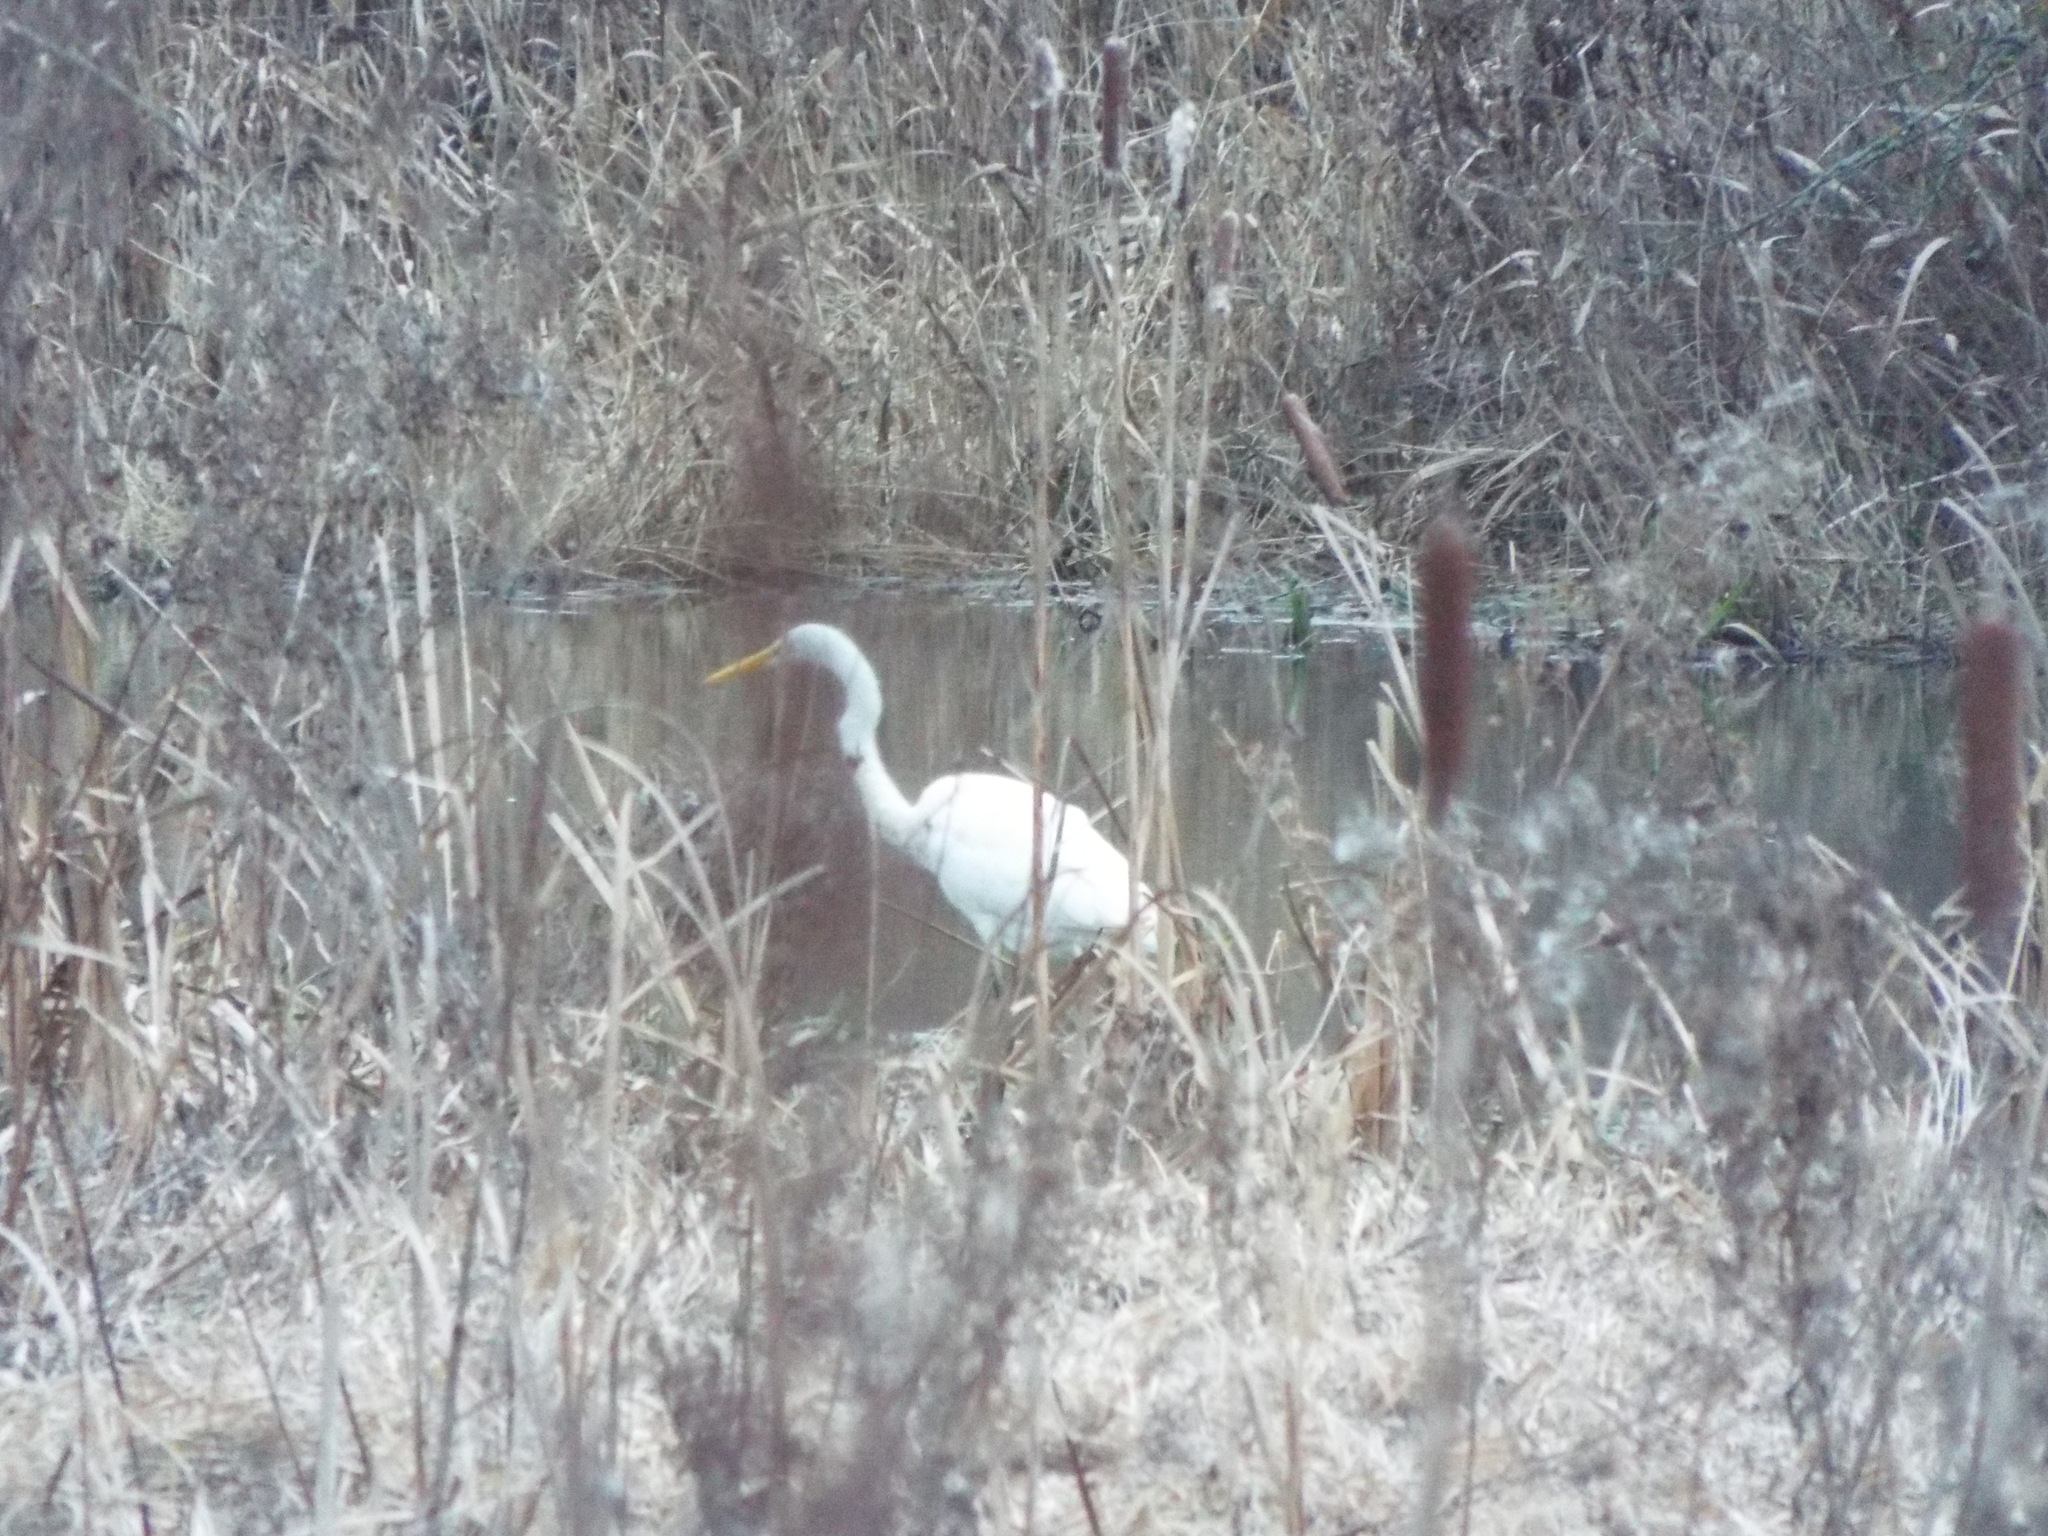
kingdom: Animalia
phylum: Chordata
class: Aves
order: Pelecaniformes
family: Ardeidae
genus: Ardea
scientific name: Ardea alba
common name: Great egret
